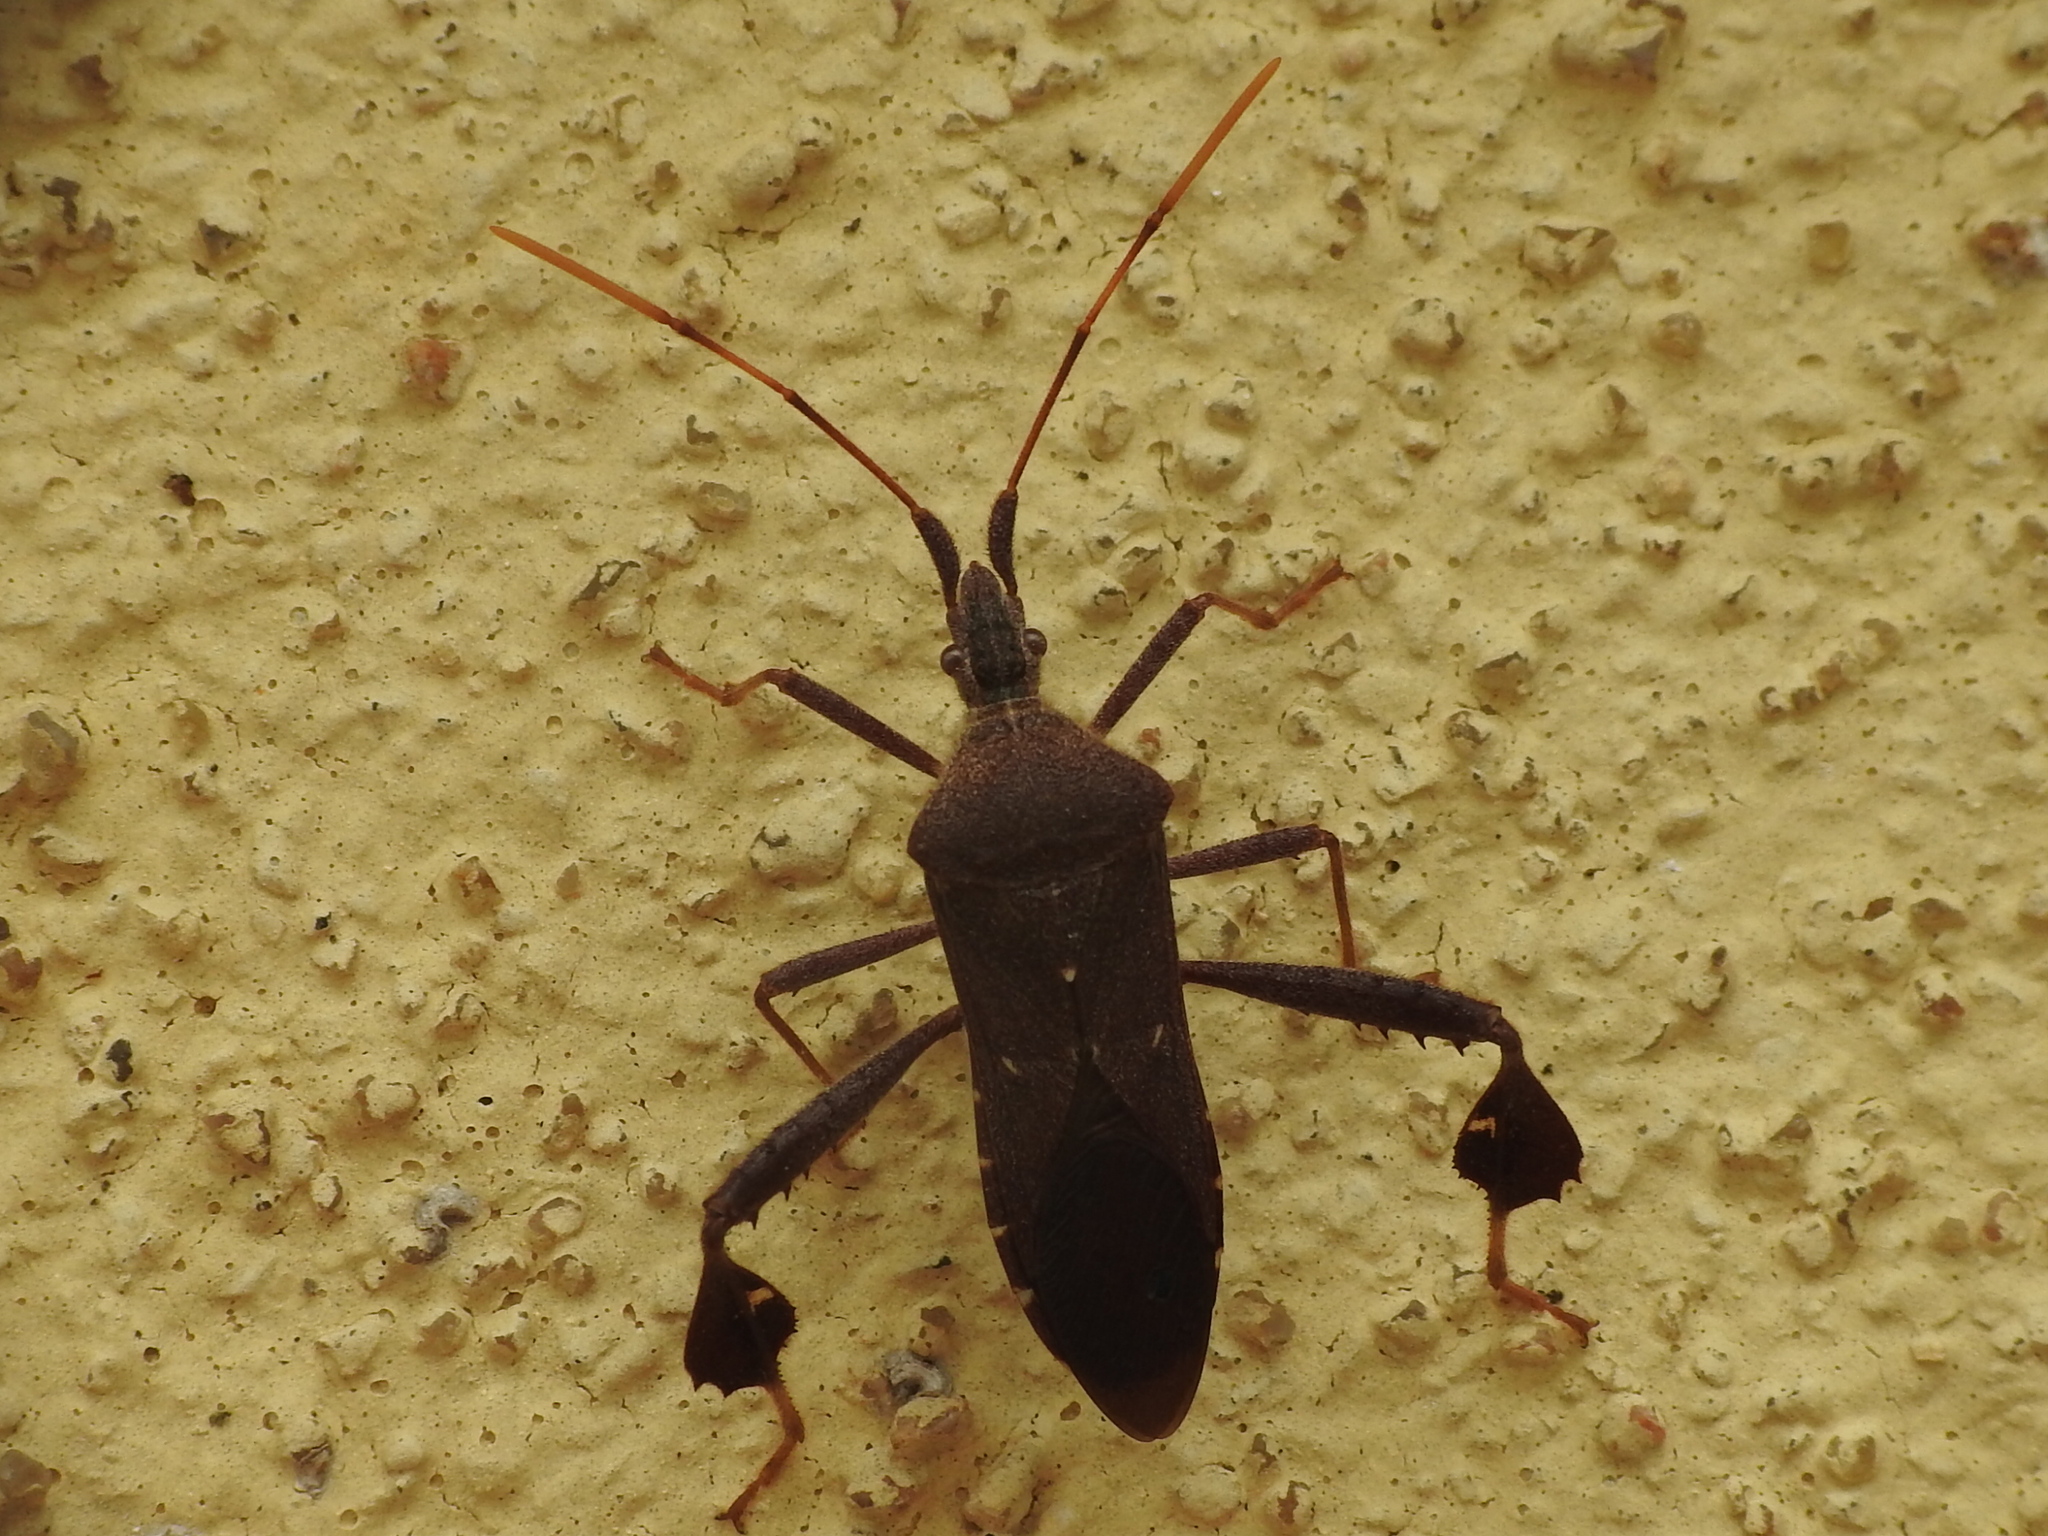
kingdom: Animalia
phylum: Arthropoda
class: Insecta
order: Hemiptera
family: Coreidae
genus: Leptoglossus
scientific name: Leptoglossus oppositus
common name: Northern leaf-footed bug
